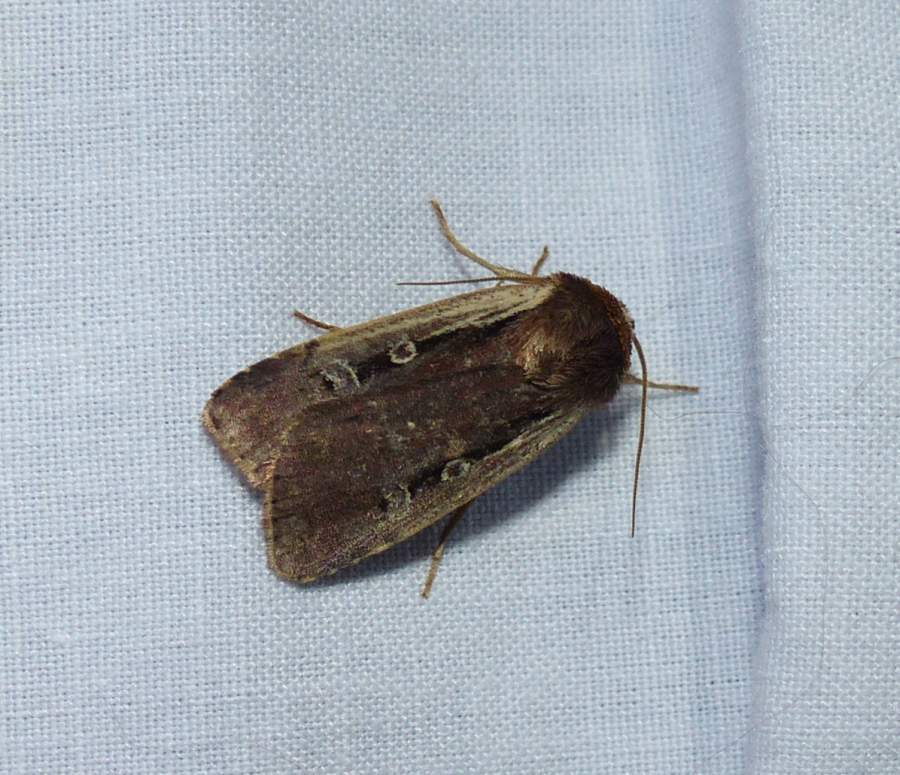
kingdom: Animalia
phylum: Arthropoda
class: Insecta
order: Lepidoptera
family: Noctuidae
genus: Ochropleura
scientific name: Ochropleura implecta
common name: Flame-shouldered dart
